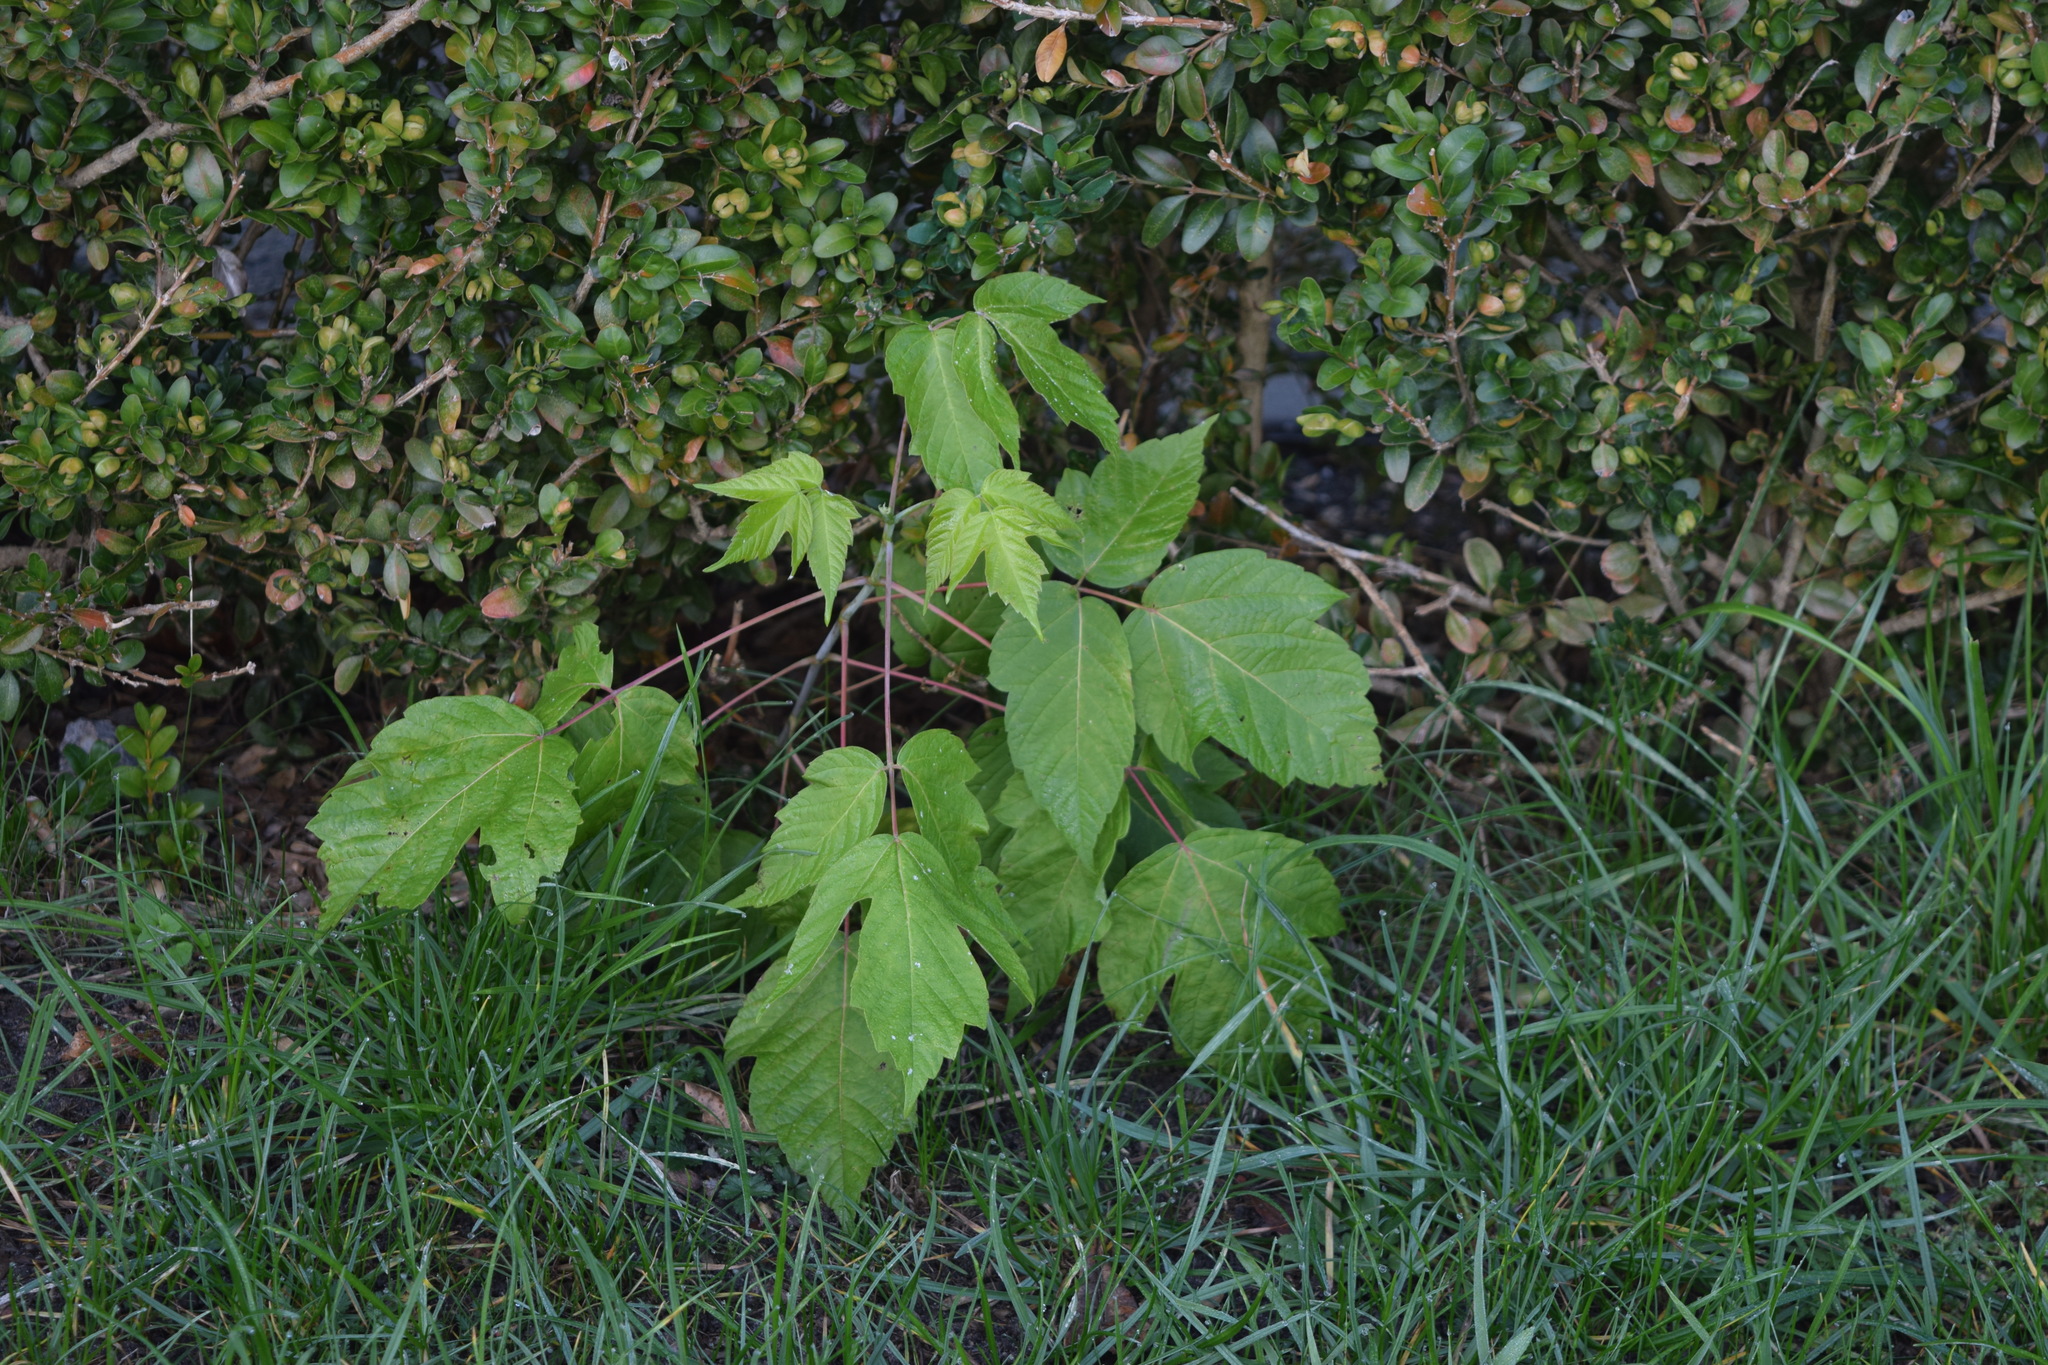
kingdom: Plantae
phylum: Tracheophyta
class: Magnoliopsida
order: Sapindales
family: Sapindaceae
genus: Acer
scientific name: Acer negundo
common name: Ashleaf maple
